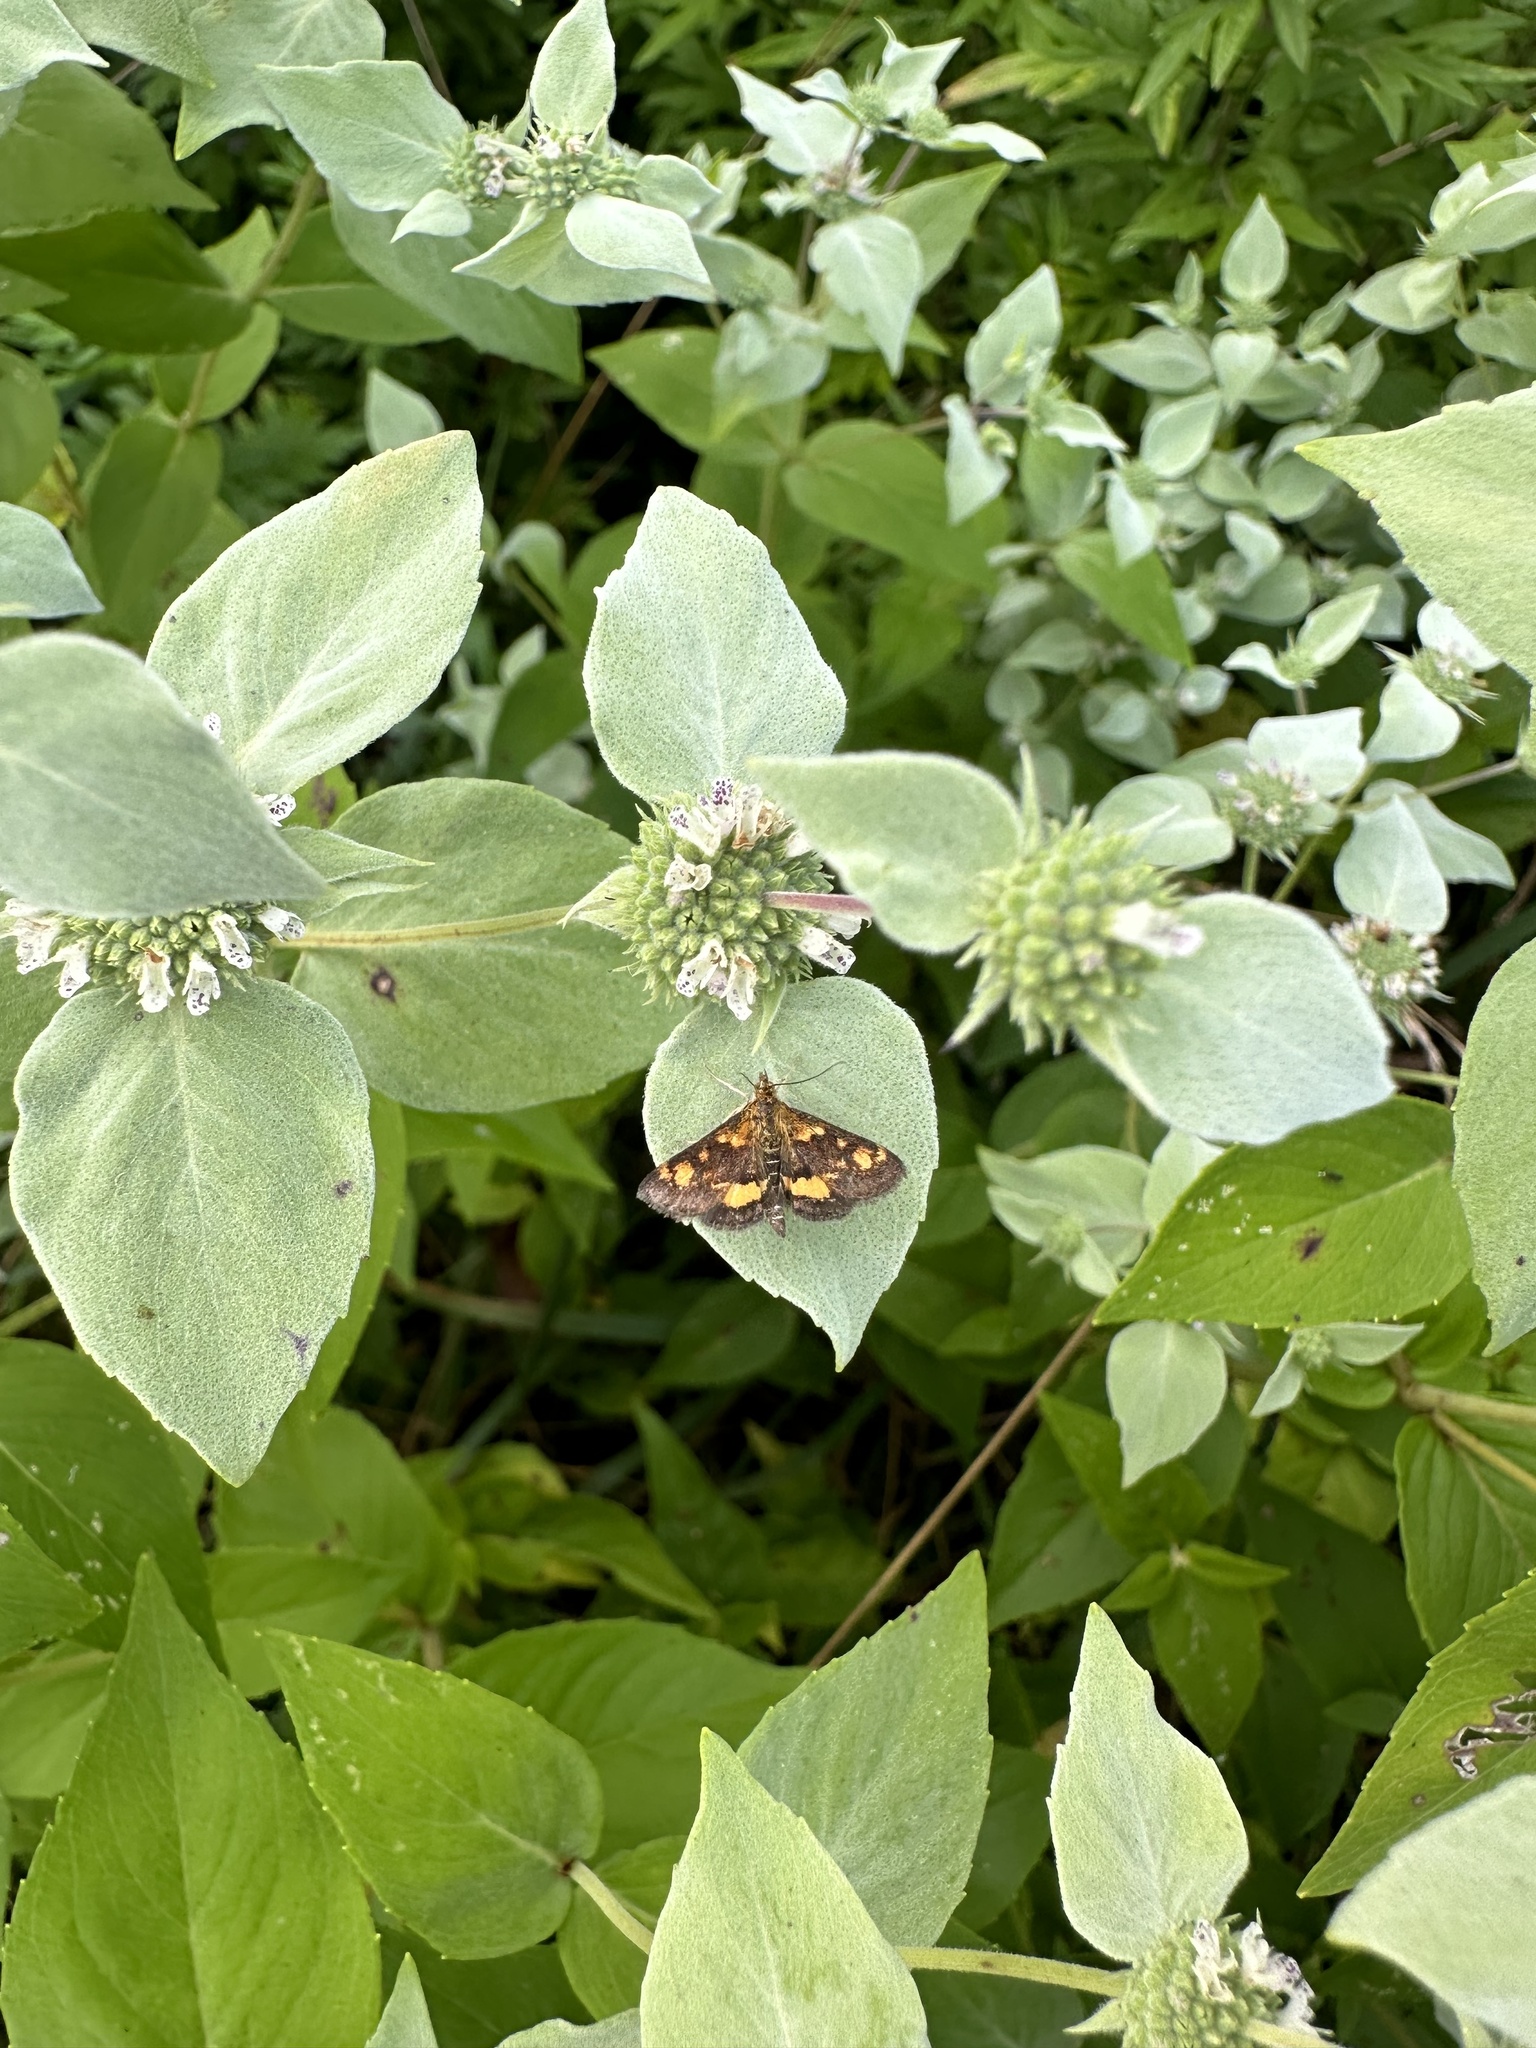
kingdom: Animalia
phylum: Arthropoda
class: Insecta
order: Lepidoptera
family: Crambidae
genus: Pyrausta
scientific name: Pyrausta orphisalis
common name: Orange mint moth
